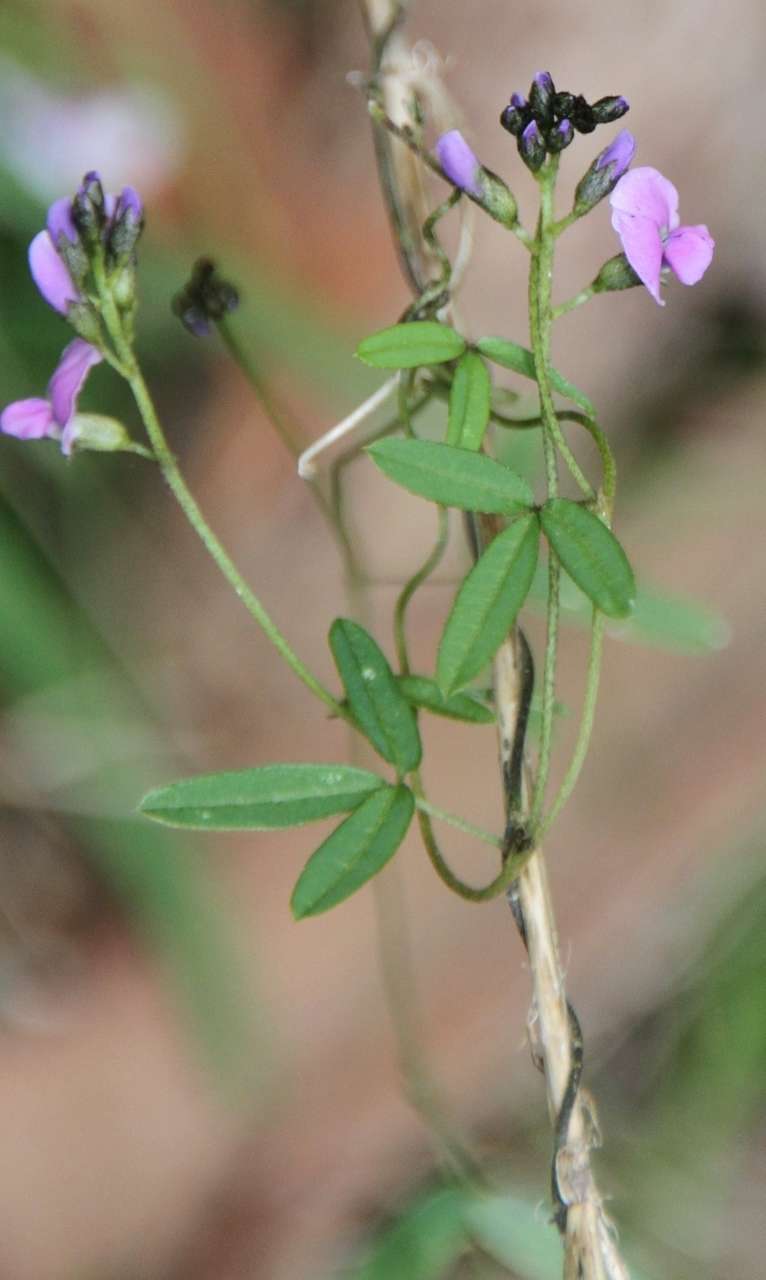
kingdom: Plantae
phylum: Tracheophyta
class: Magnoliopsida
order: Fabales
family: Fabaceae
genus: Glycine
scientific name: Glycine clandestina
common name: Twining glycine
